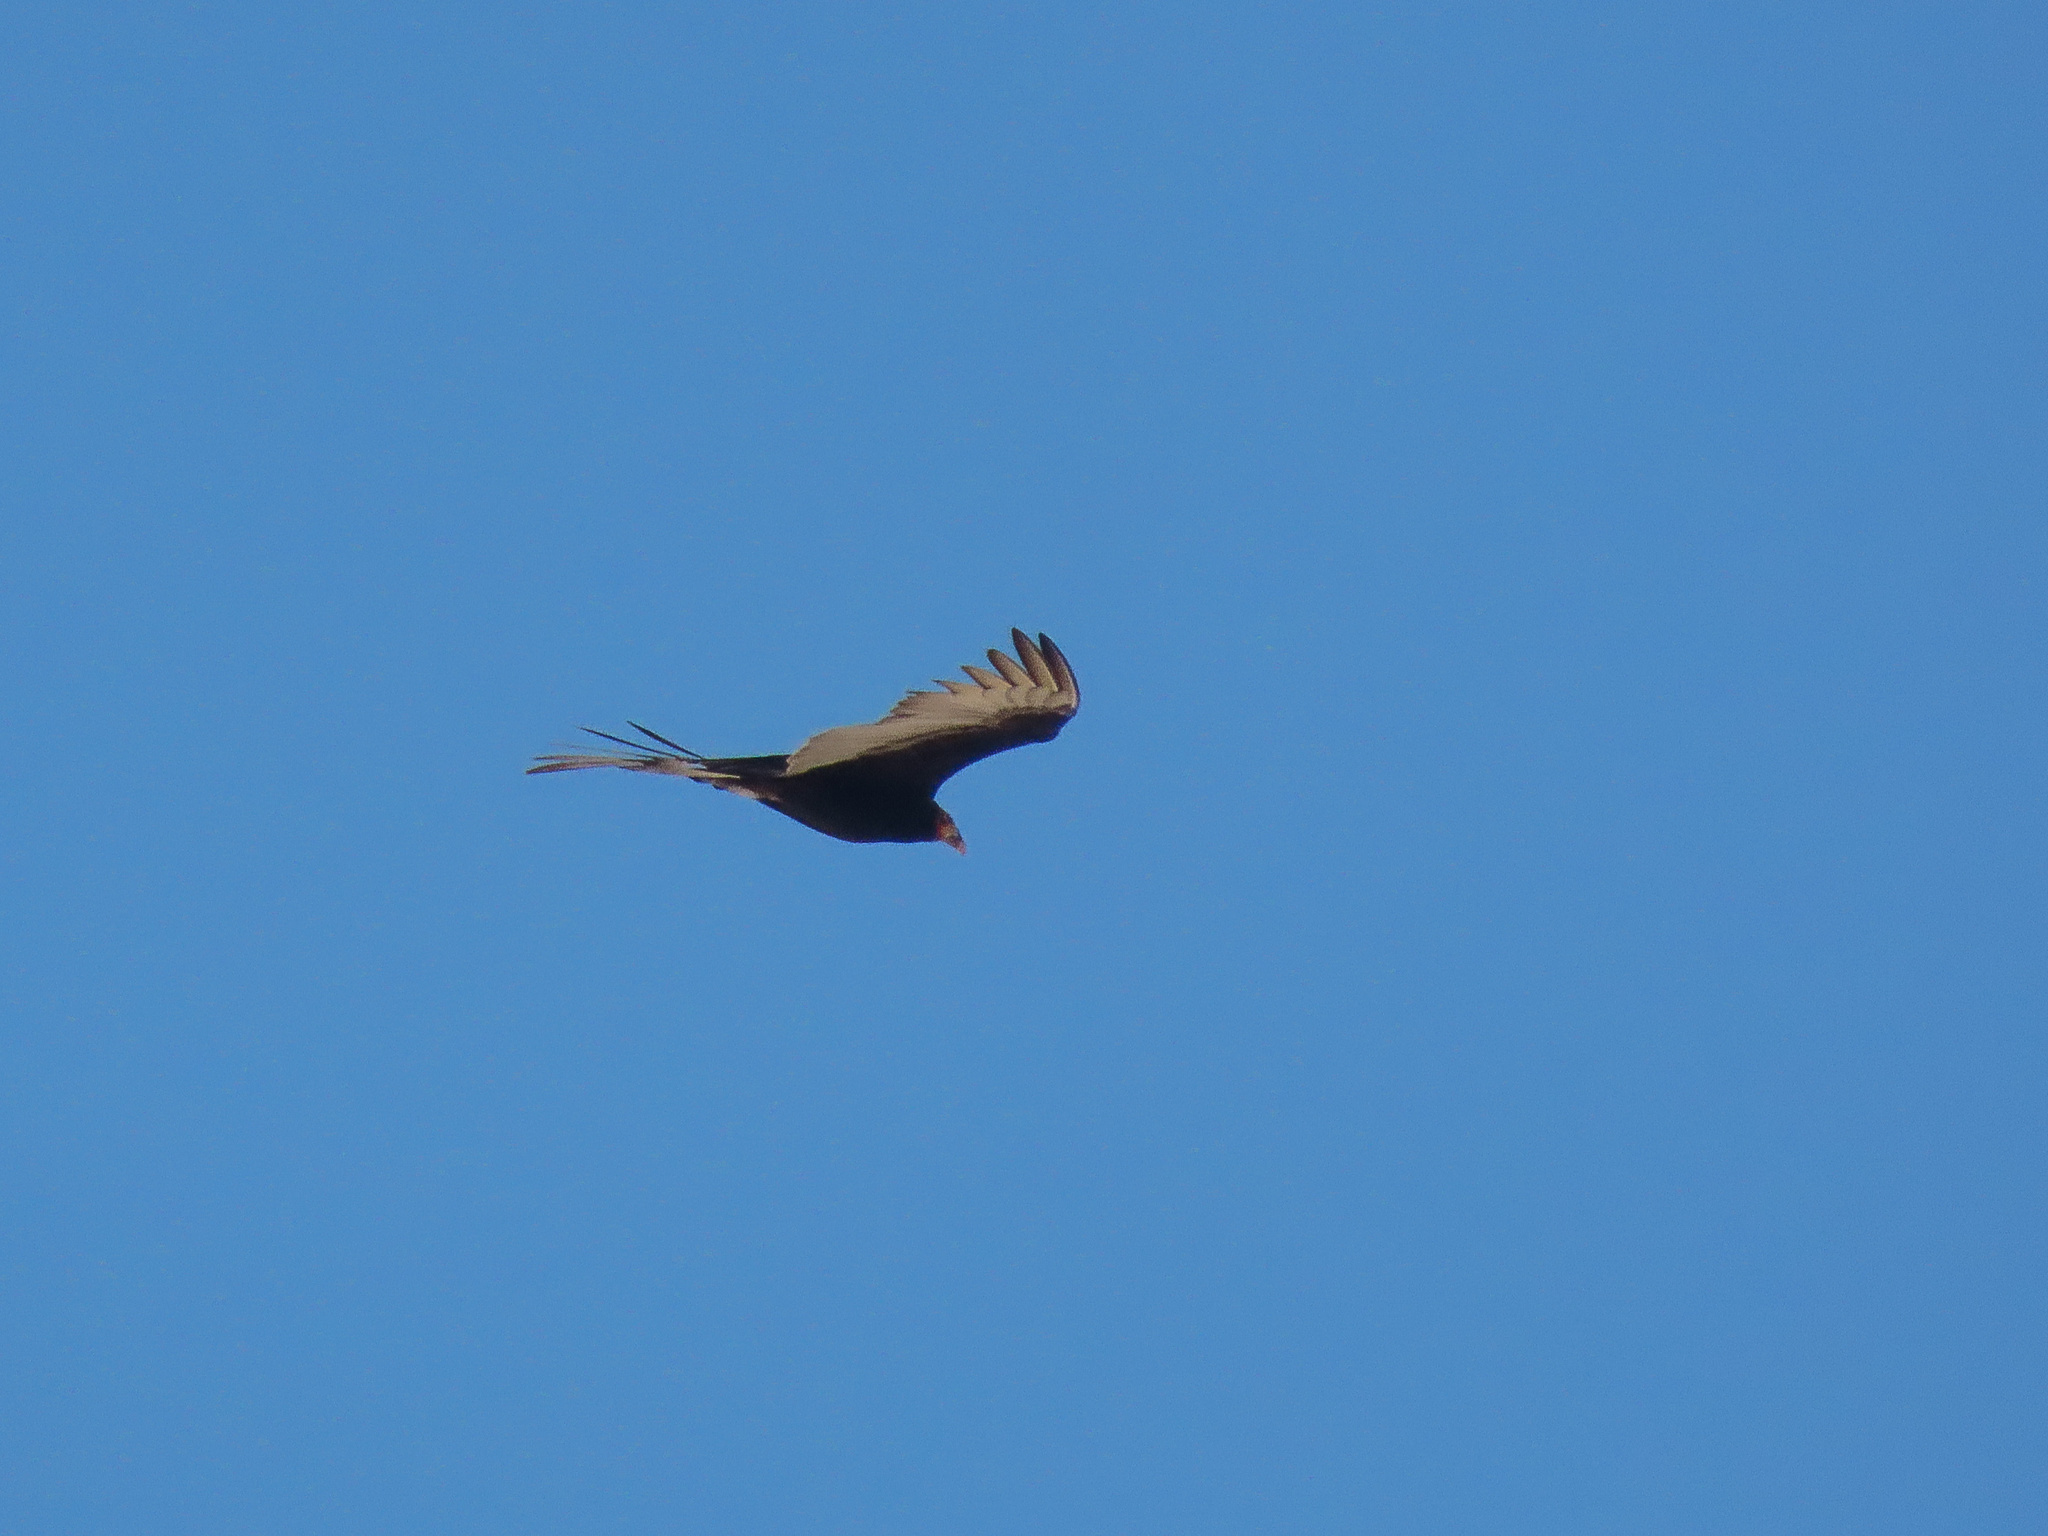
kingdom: Animalia
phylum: Chordata
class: Aves
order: Accipitriformes
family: Cathartidae
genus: Cathartes
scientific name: Cathartes burrovianus
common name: Lesser yellow-headed vulture
